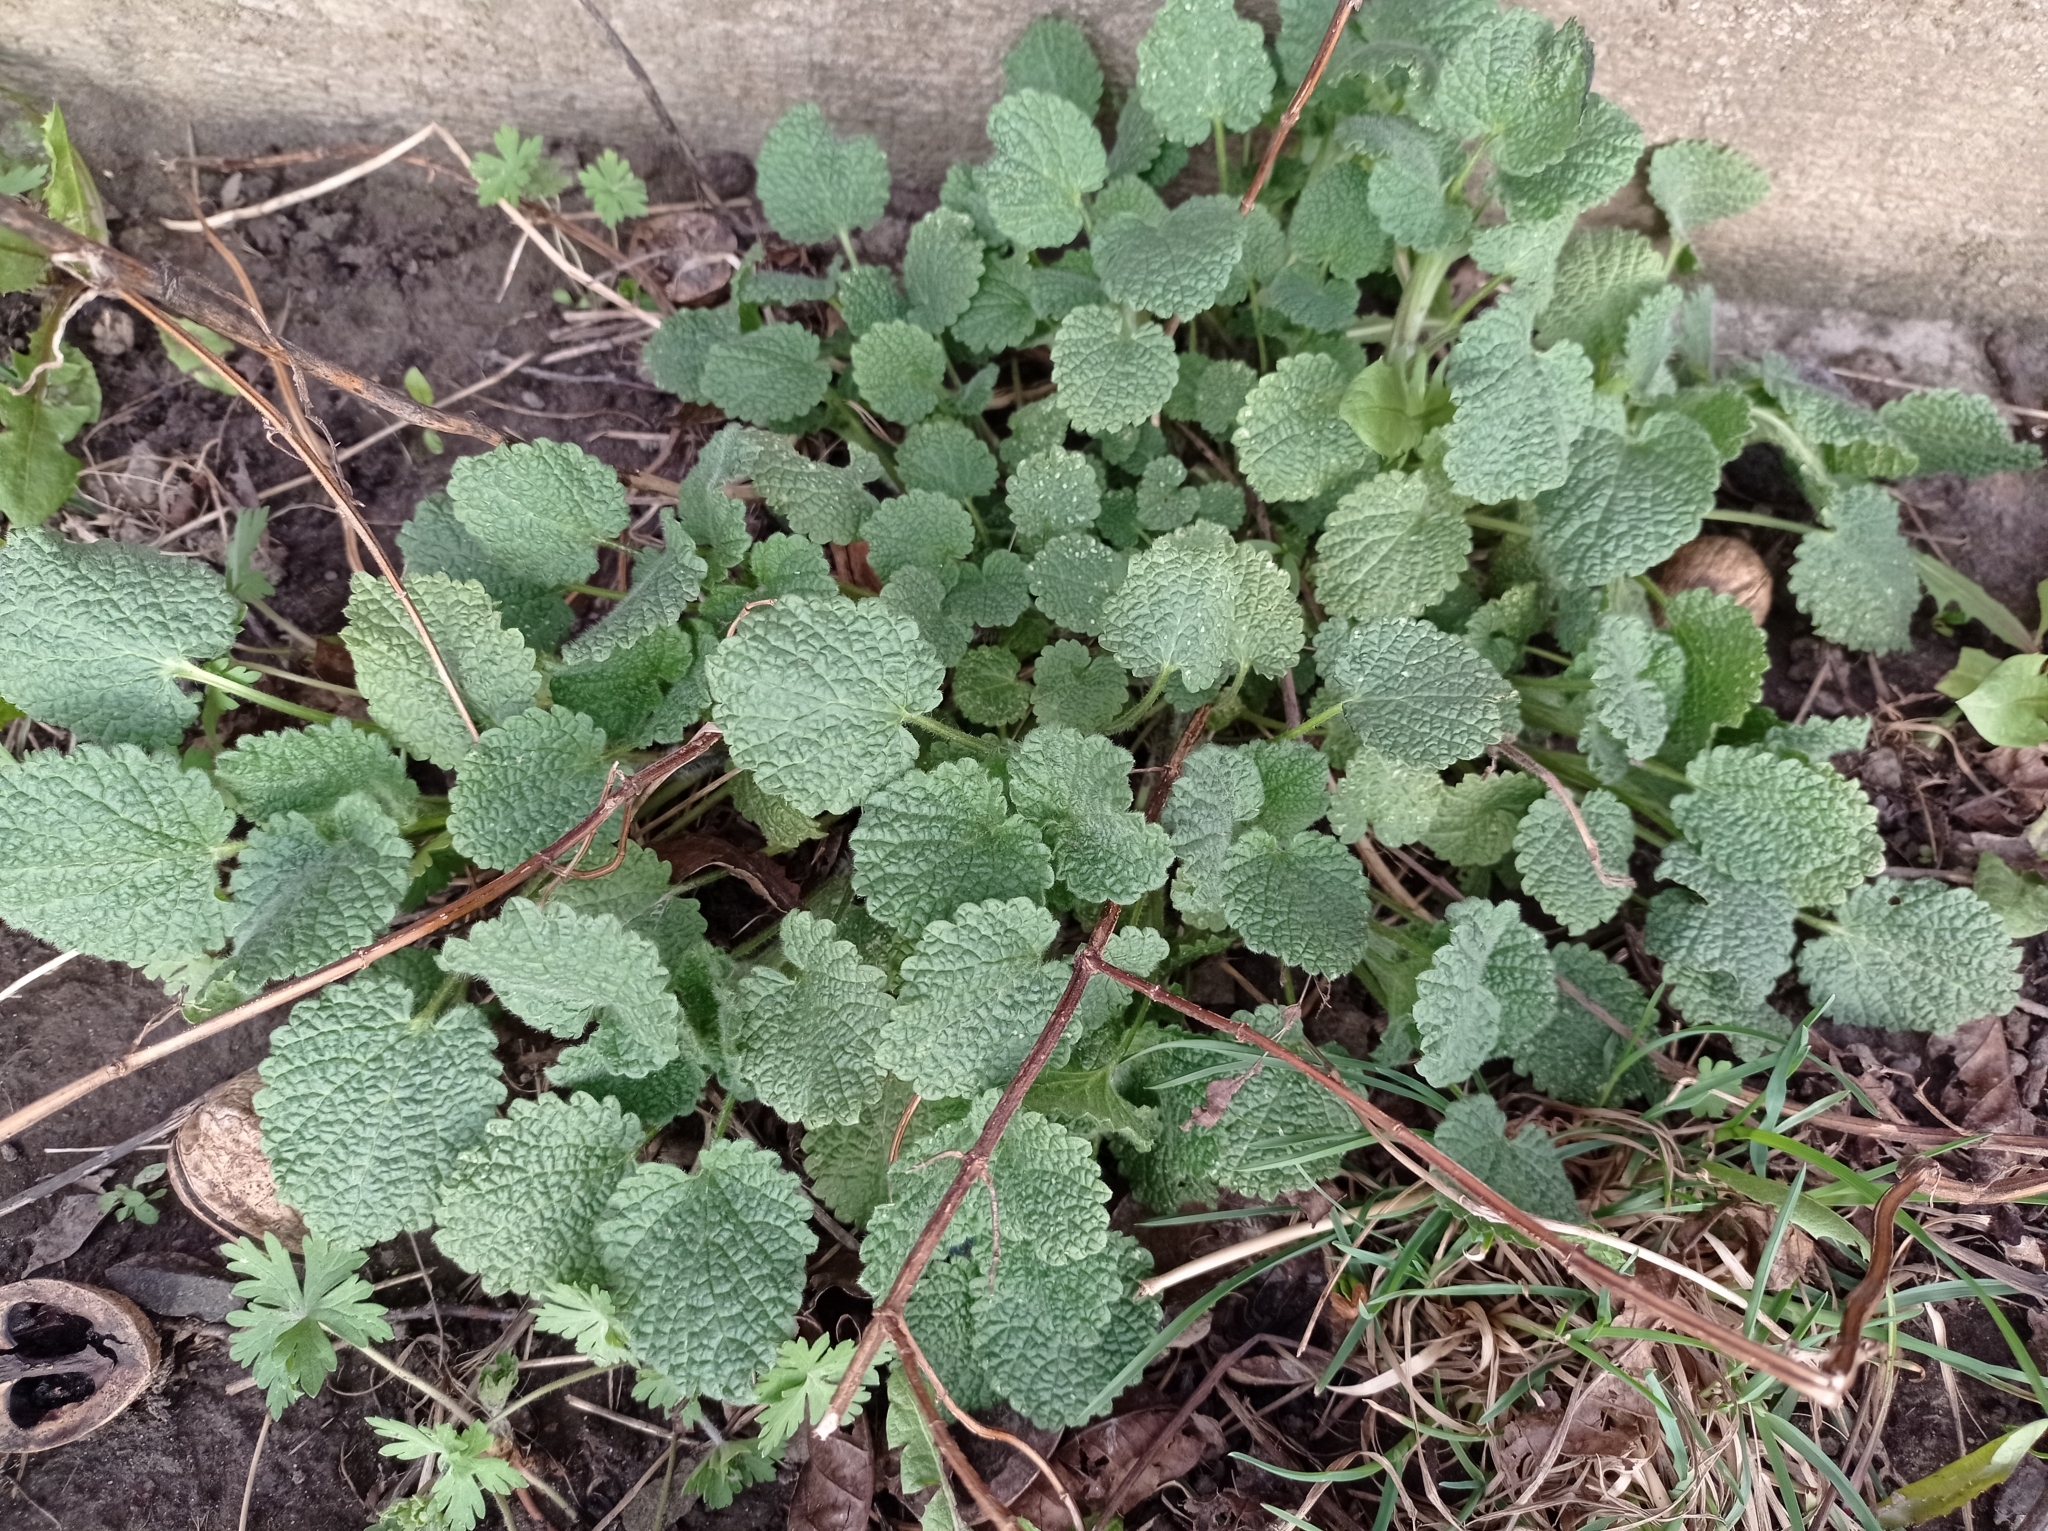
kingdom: Plantae
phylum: Tracheophyta
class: Magnoliopsida
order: Lamiales
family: Lamiaceae
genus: Ballota
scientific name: Ballota nigra
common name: Black horehound
